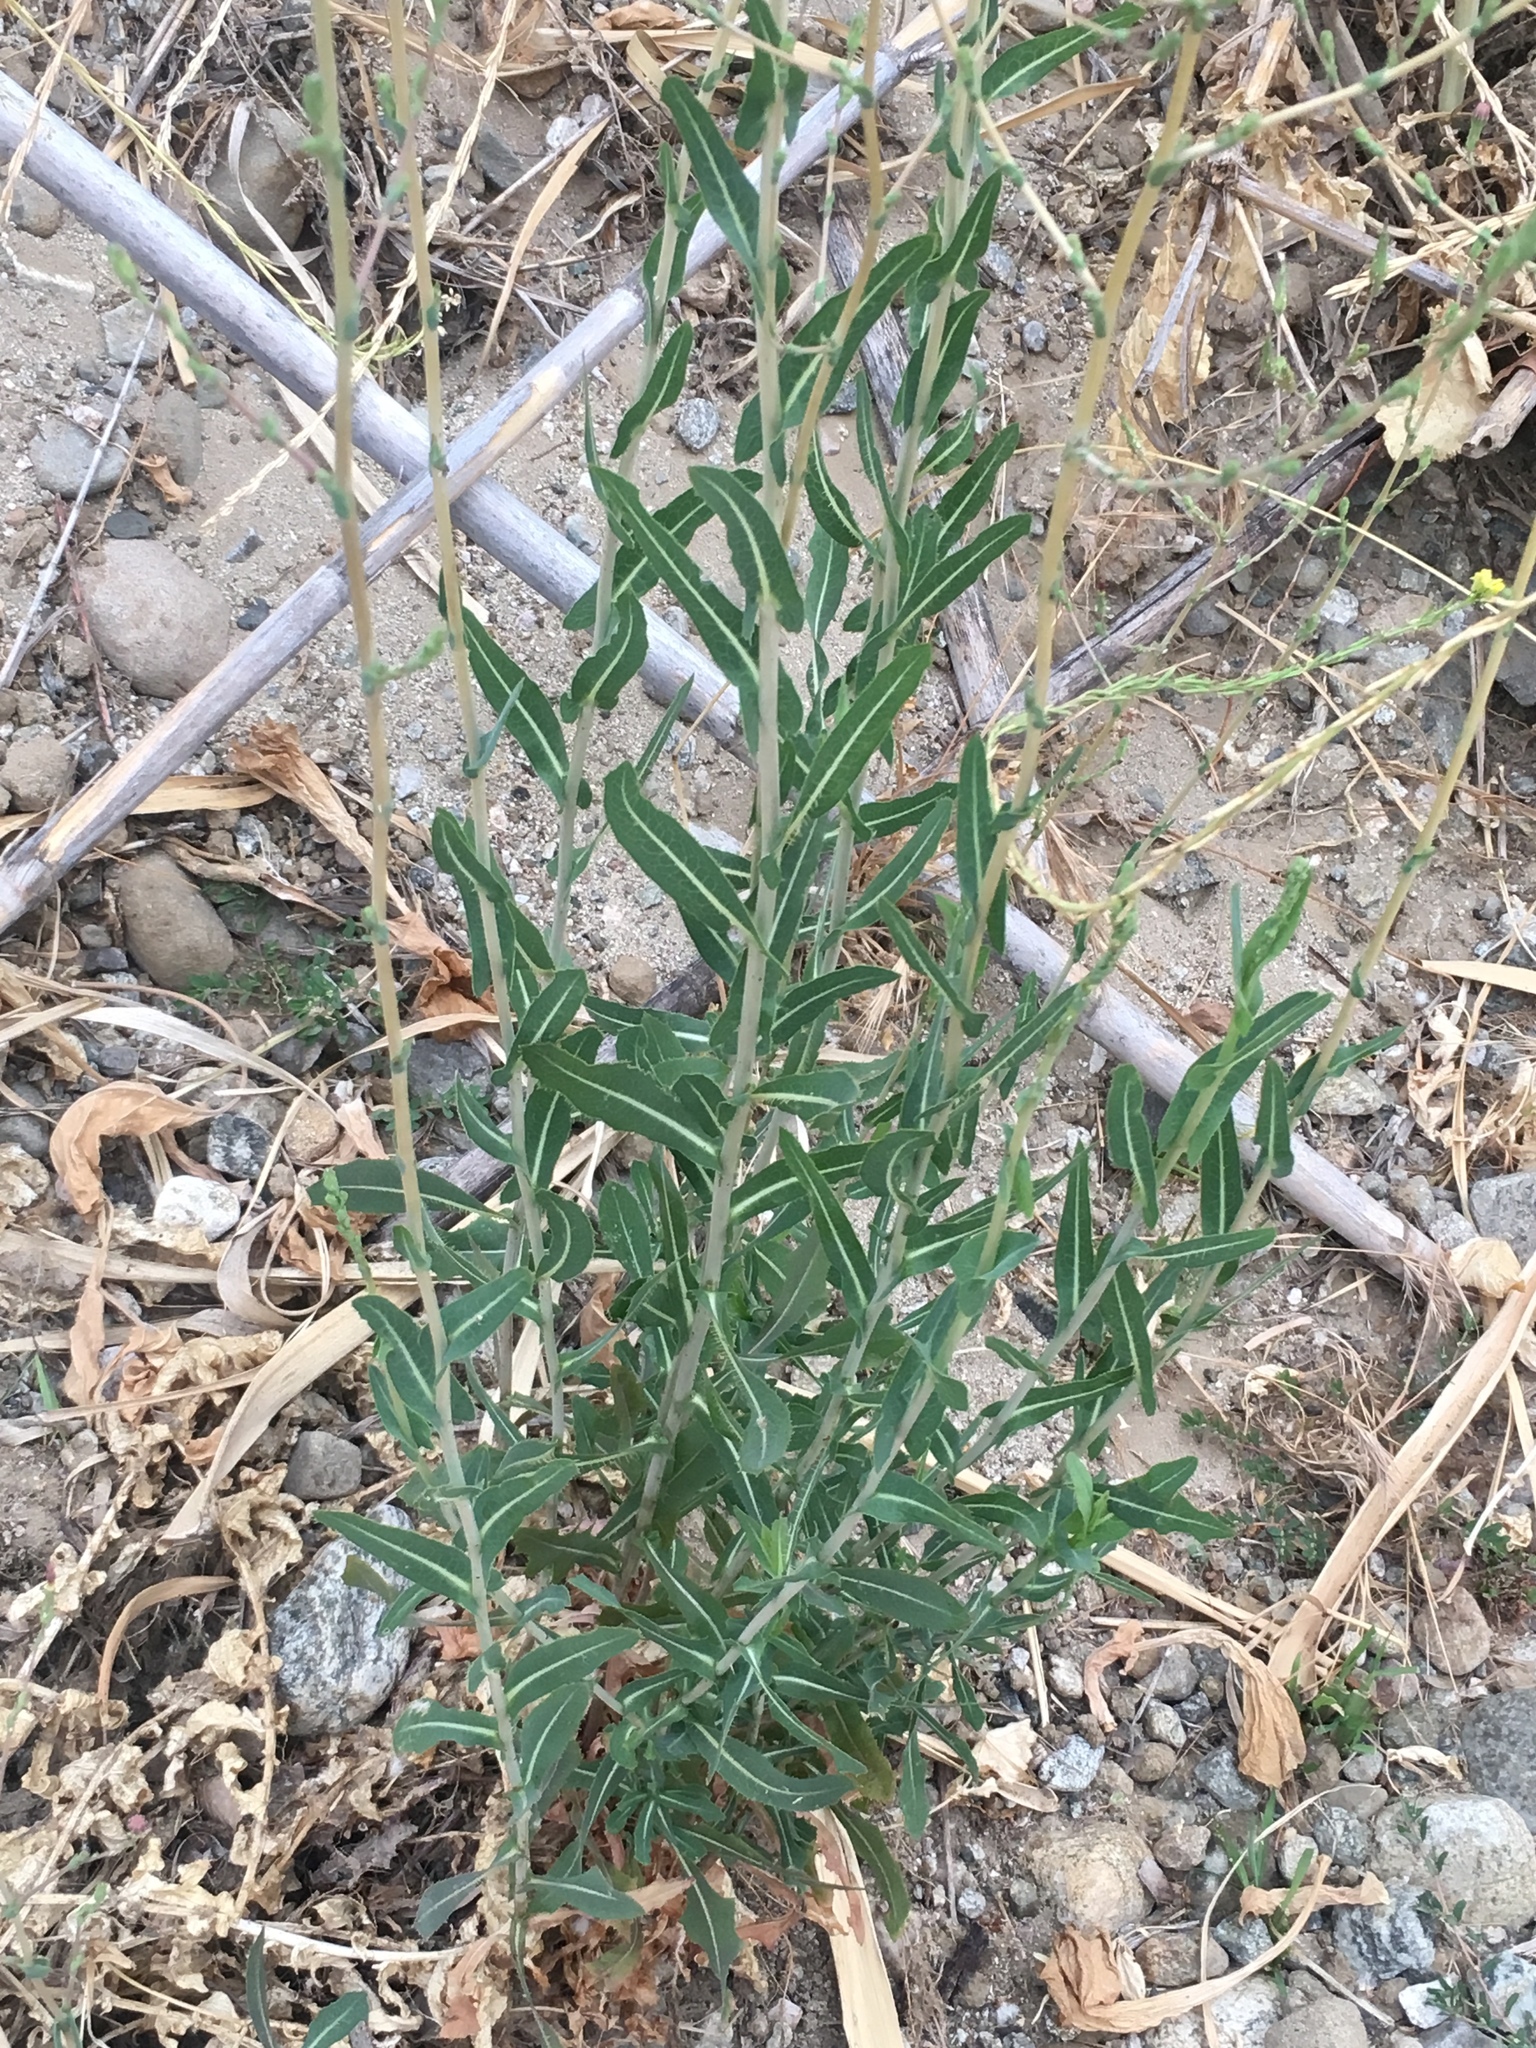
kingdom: Plantae
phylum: Tracheophyta
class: Magnoliopsida
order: Asterales
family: Asteraceae
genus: Lactuca
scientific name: Lactuca serriola
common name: Prickly lettuce
